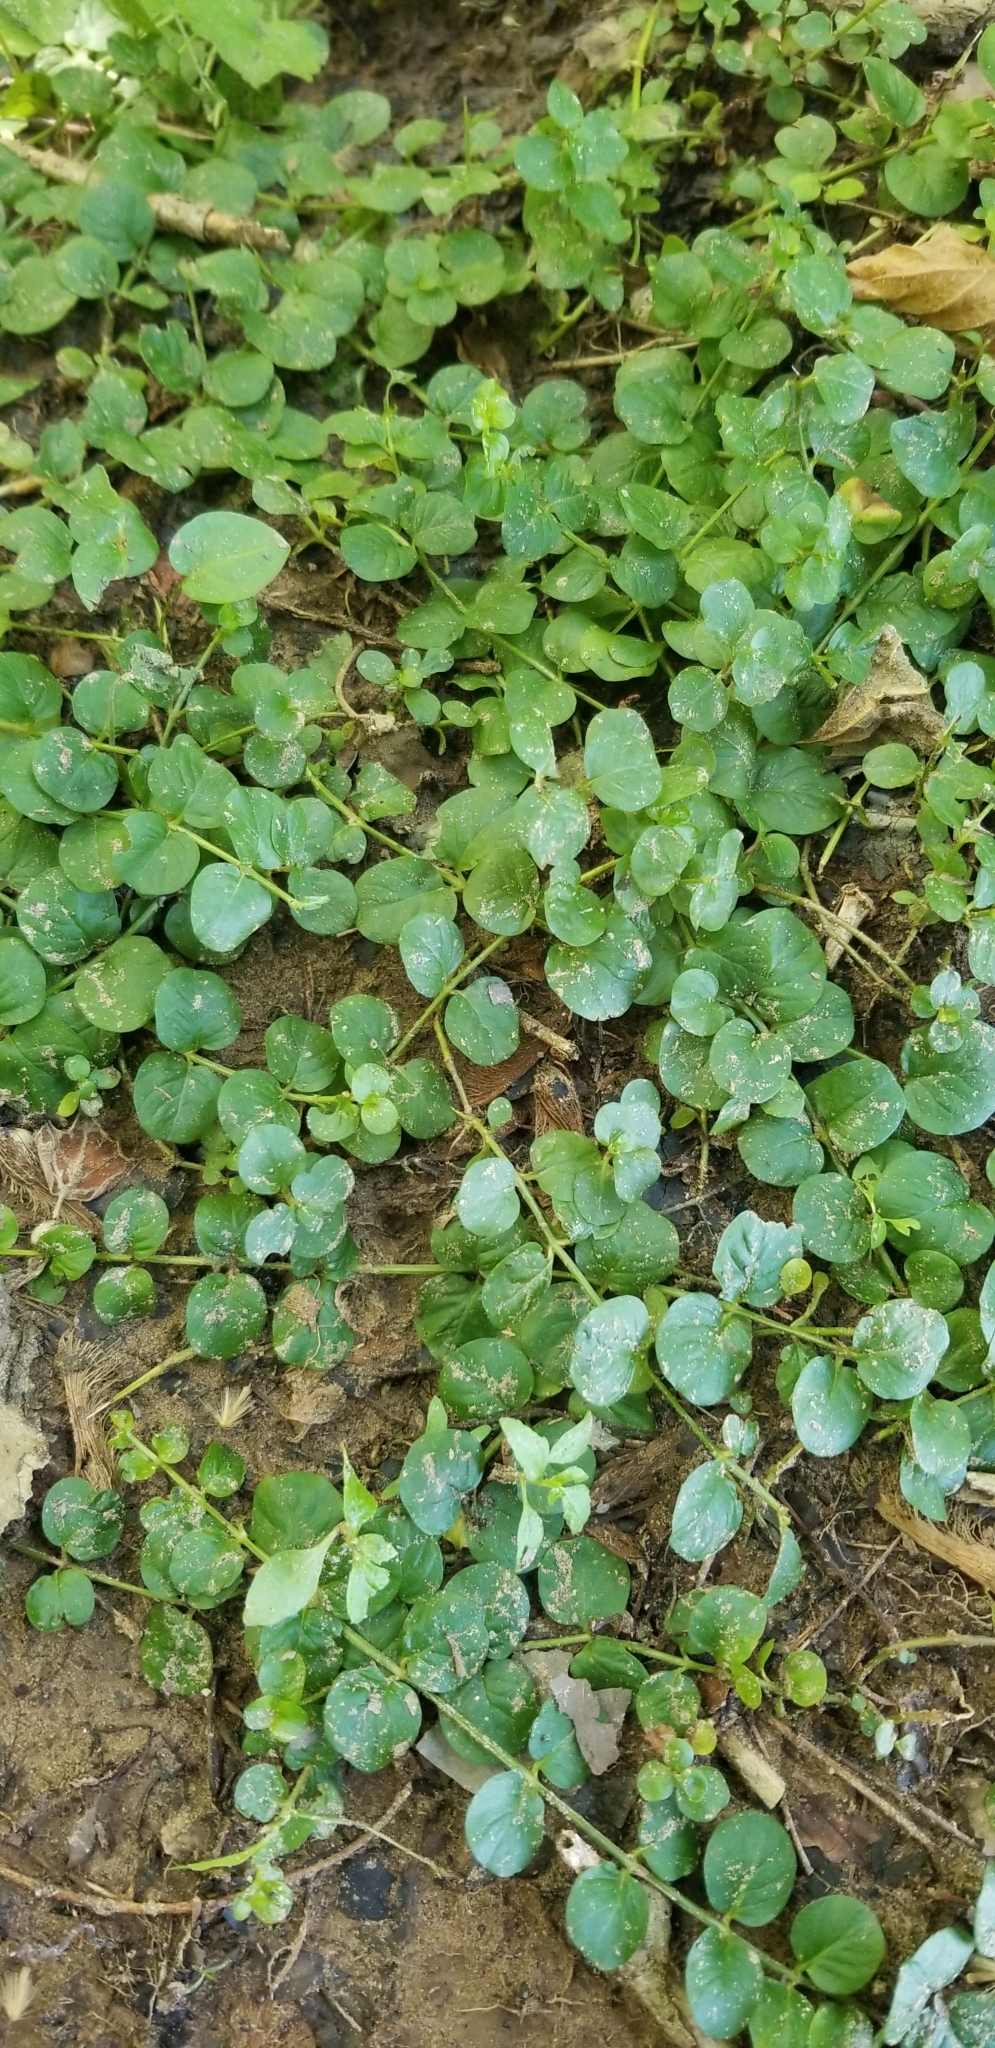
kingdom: Plantae
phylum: Tracheophyta
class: Magnoliopsida
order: Ericales
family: Primulaceae
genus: Lysimachia
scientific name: Lysimachia nummularia
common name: Moneywort
